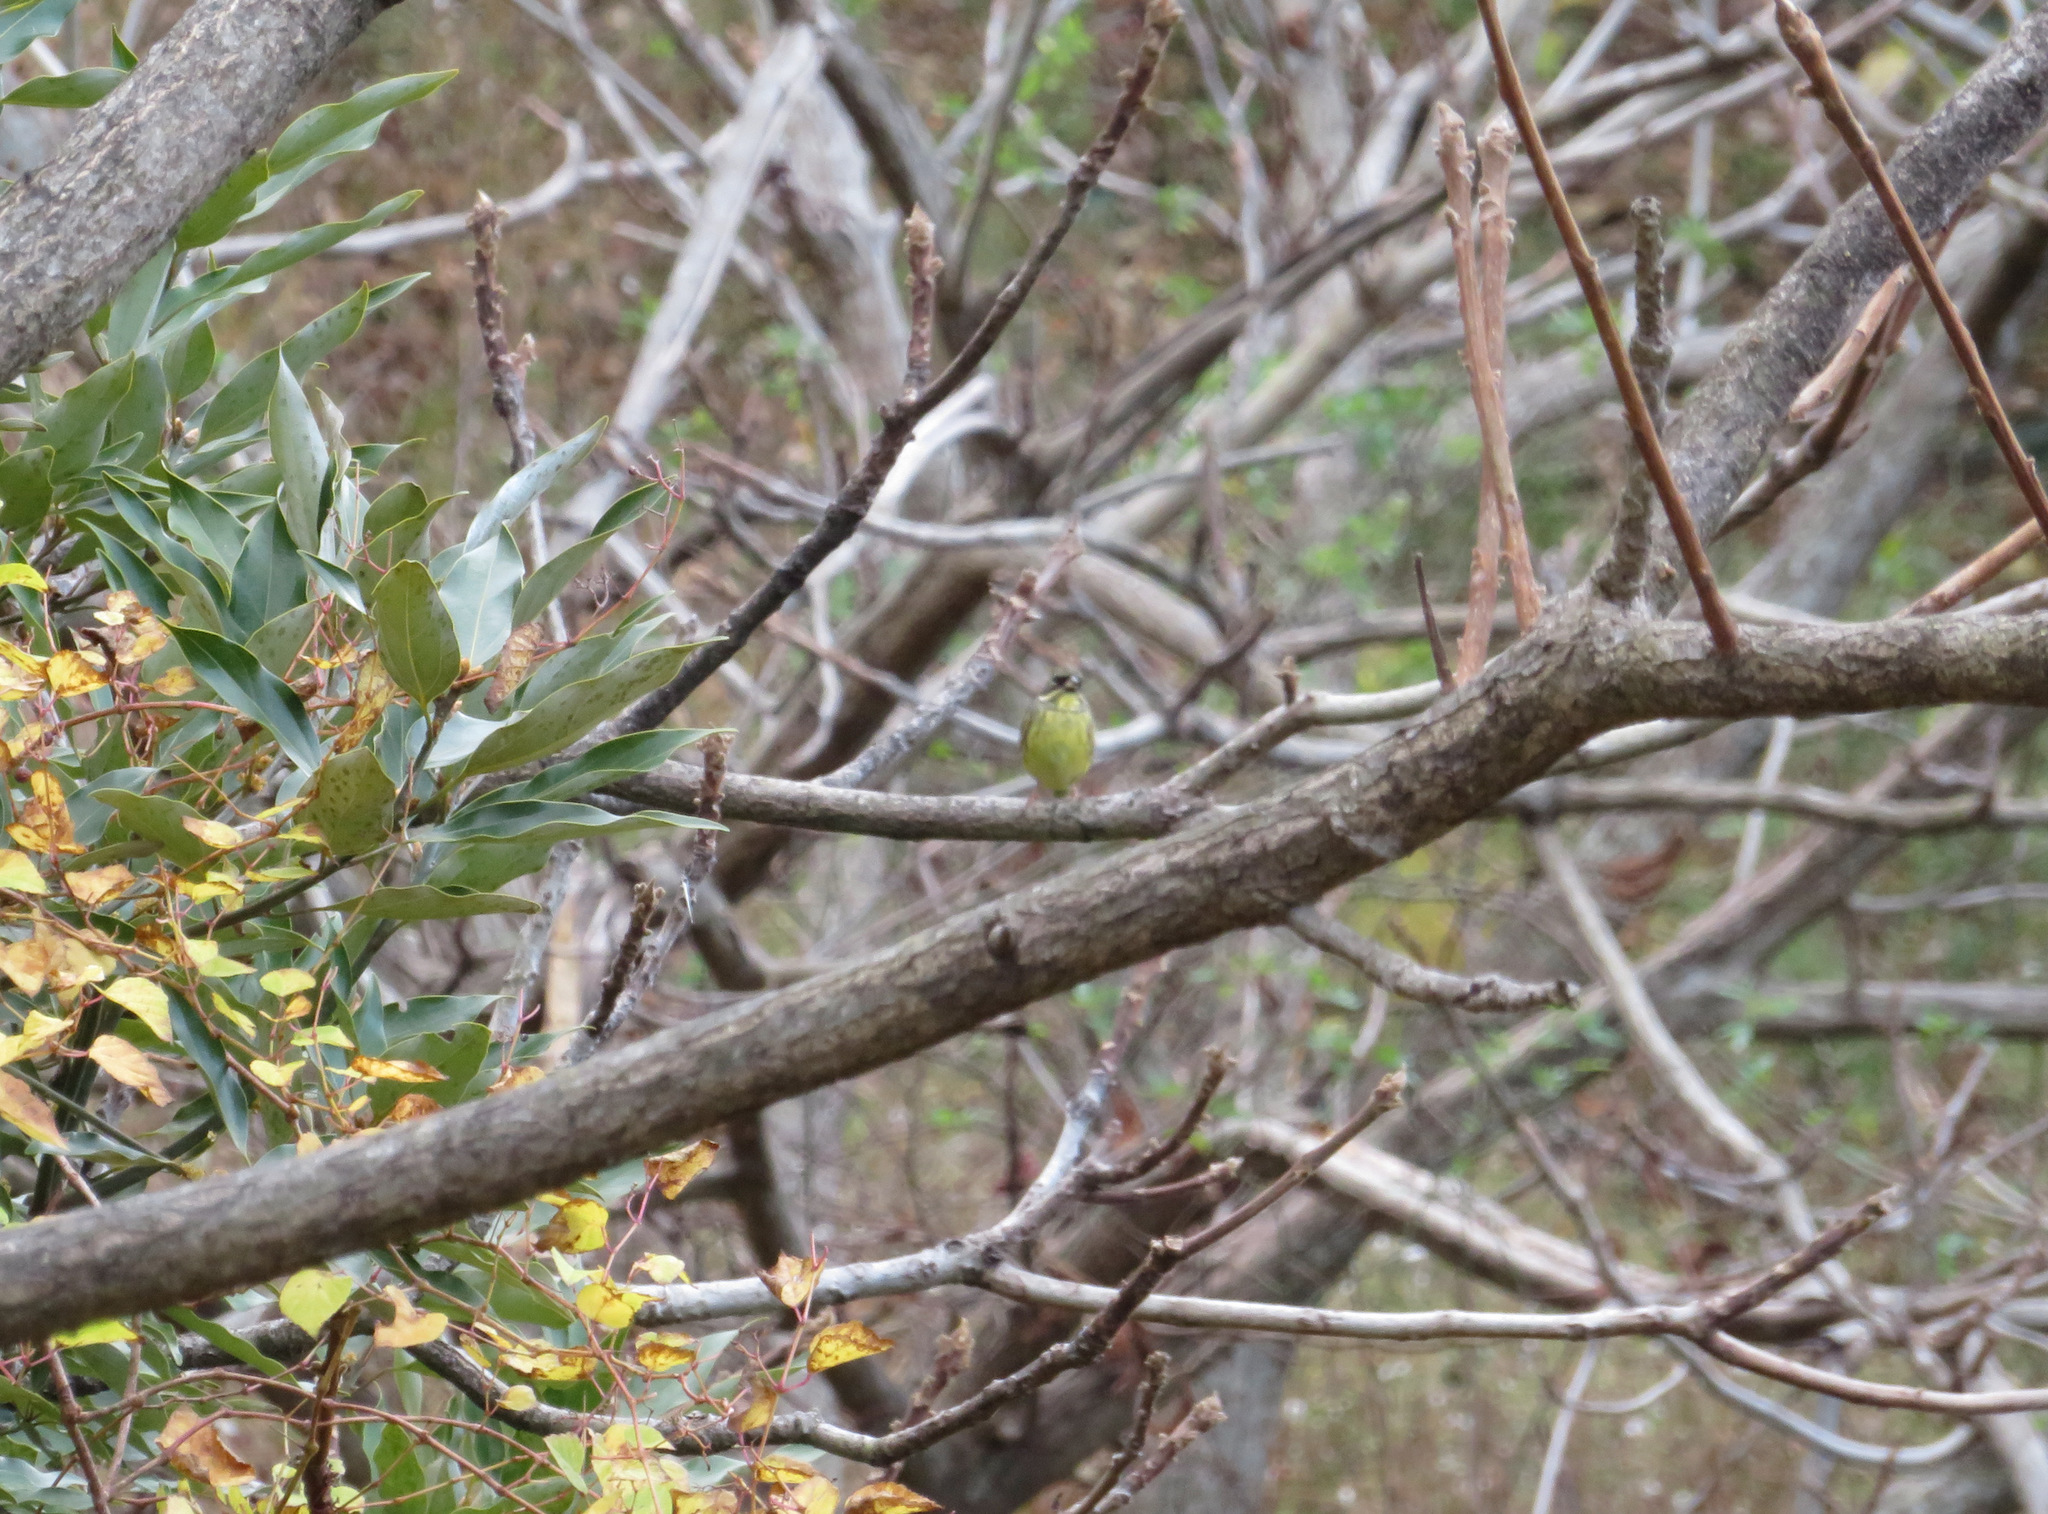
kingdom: Animalia
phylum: Chordata
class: Aves
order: Passeriformes
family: Emberizidae
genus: Emberiza
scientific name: Emberiza personata
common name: Masked bunting
